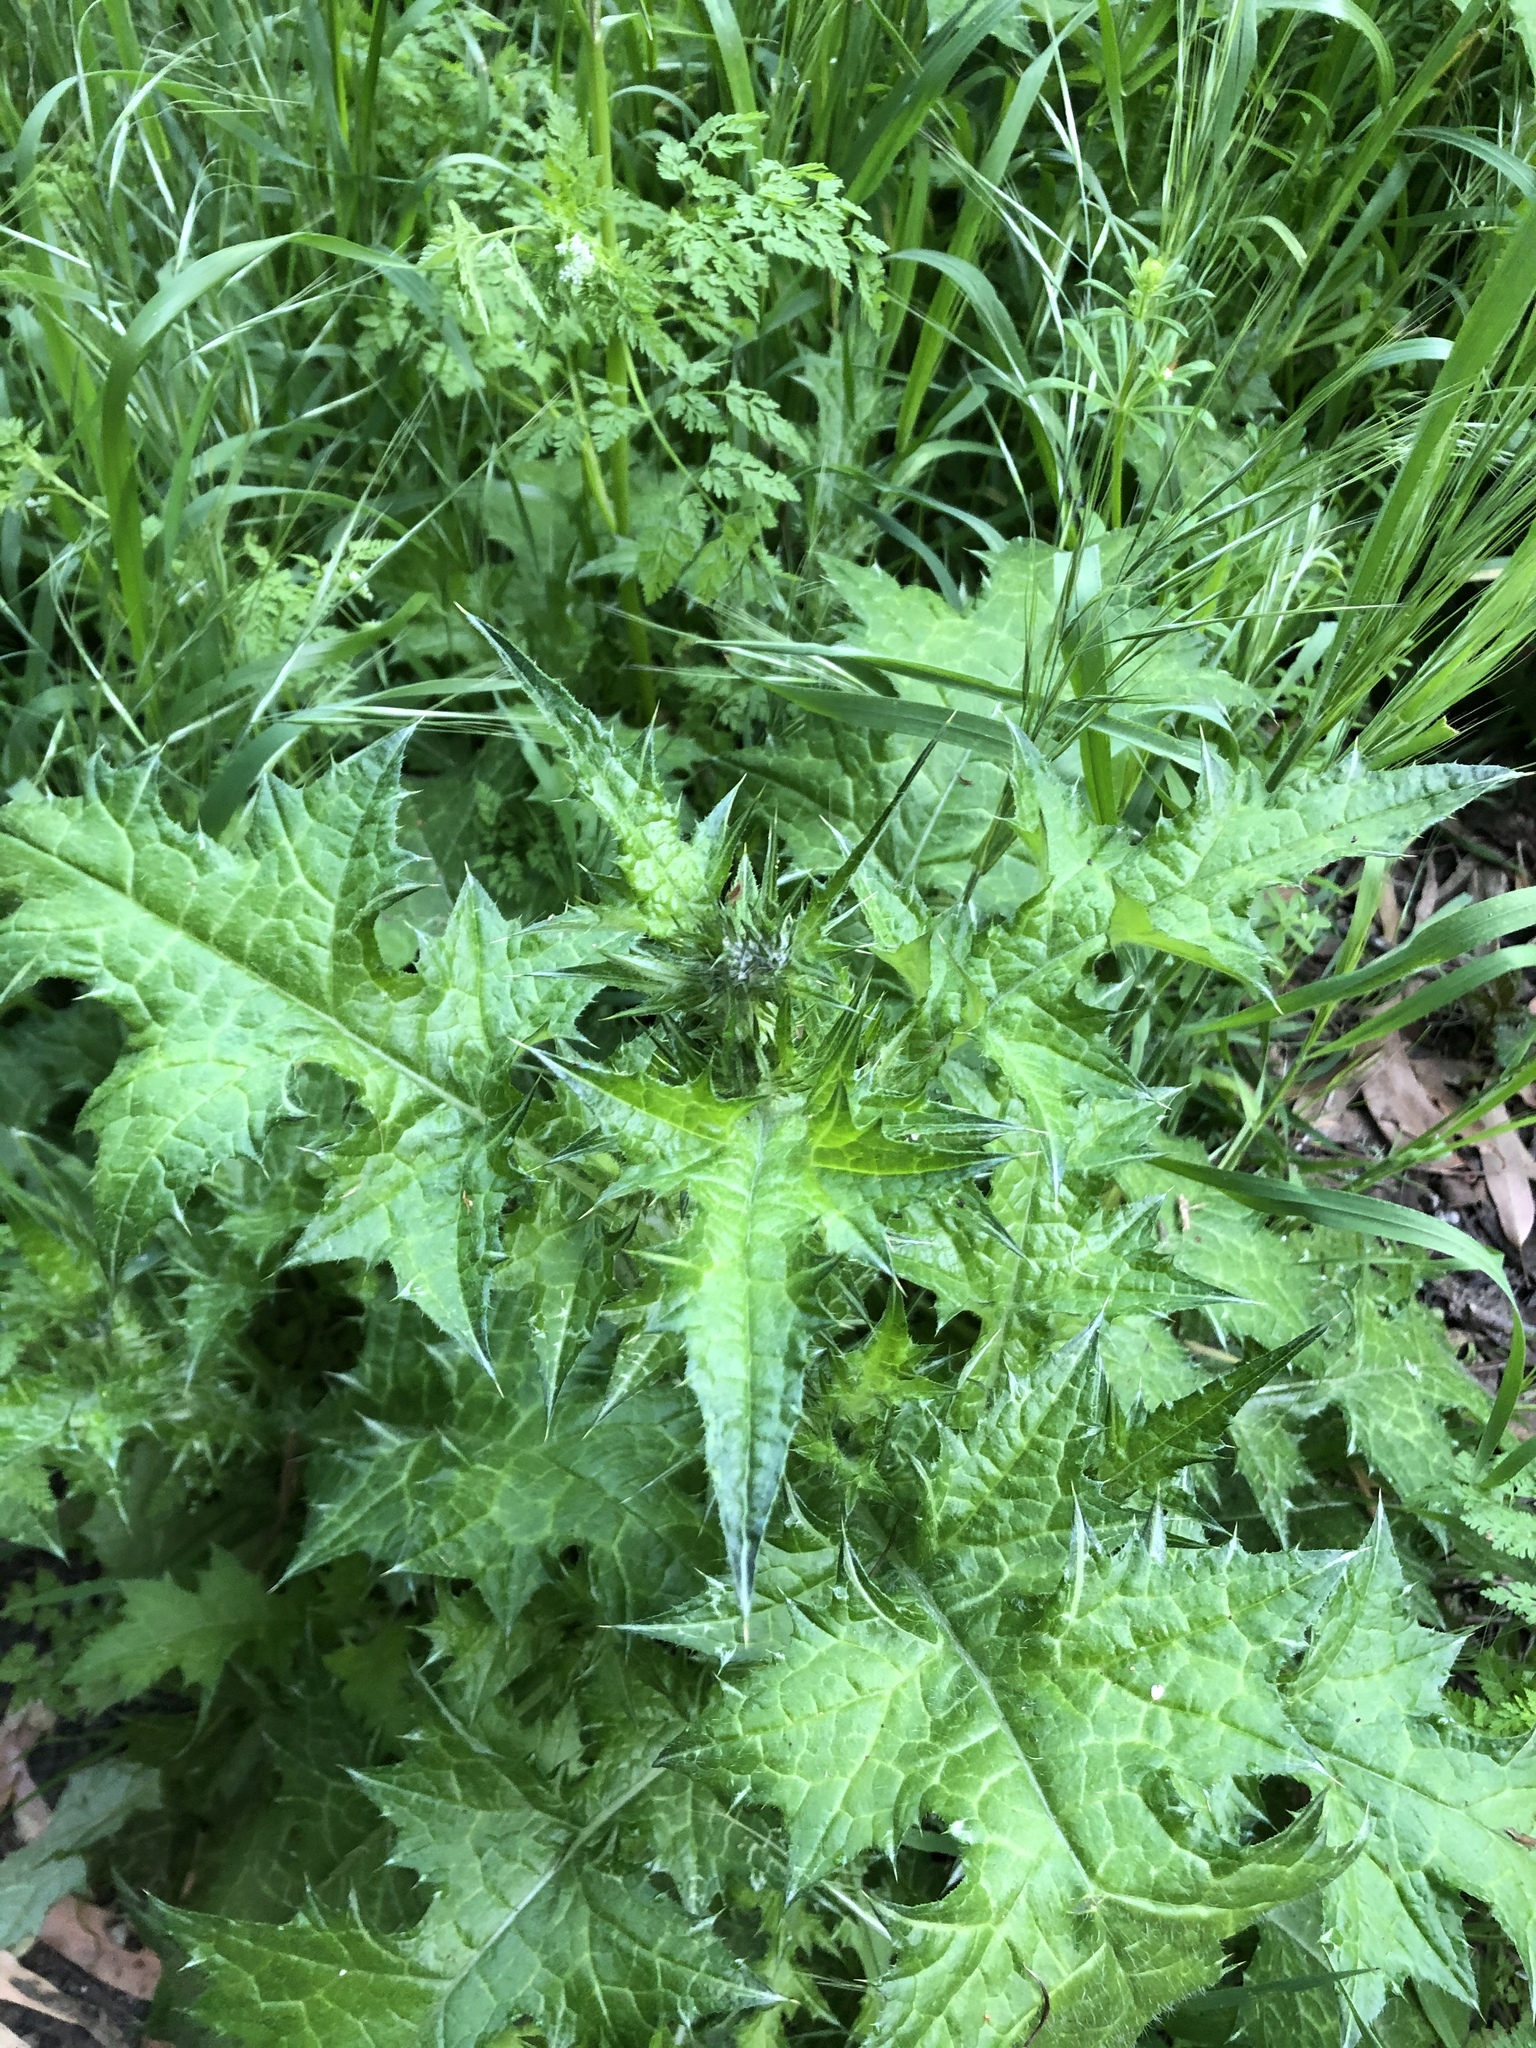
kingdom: Plantae
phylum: Tracheophyta
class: Magnoliopsida
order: Asterales
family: Asteraceae
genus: Carduus
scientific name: Carduus pycnocephalus
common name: Plymouth thistle
